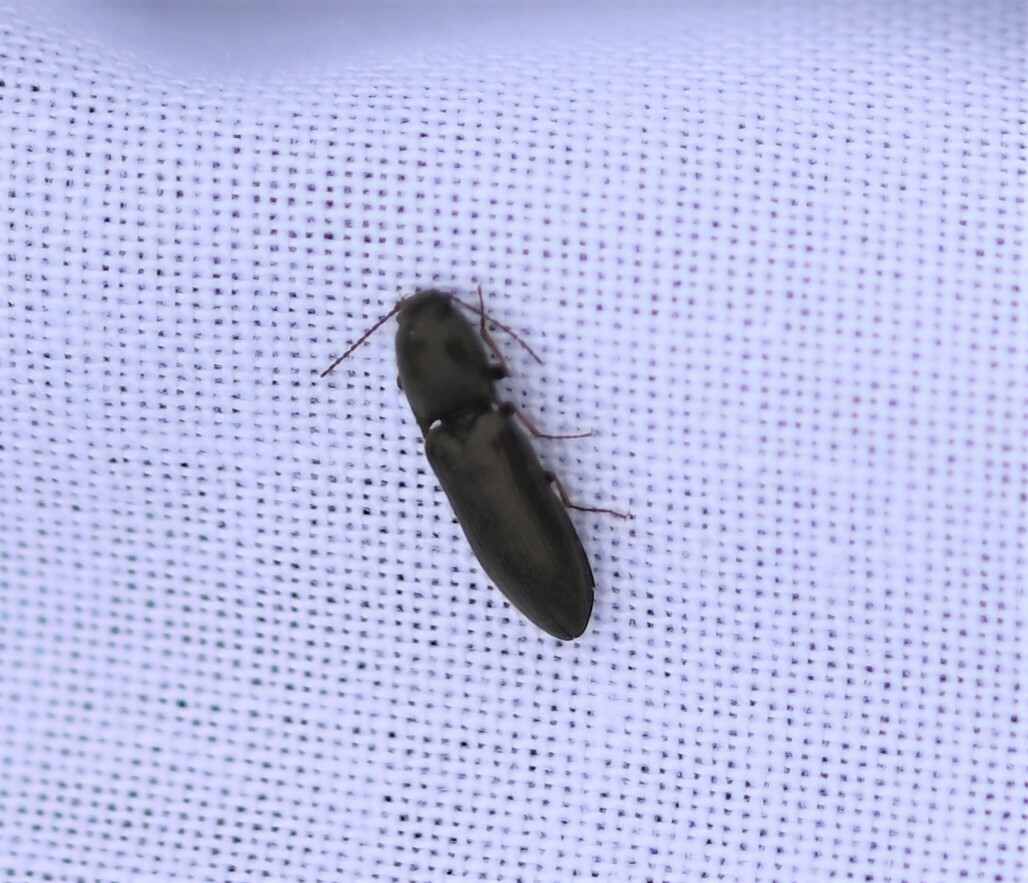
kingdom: Animalia
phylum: Arthropoda
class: Insecta
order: Coleoptera
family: Elateridae
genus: Aplotarsus
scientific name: Aplotarsus incanus
